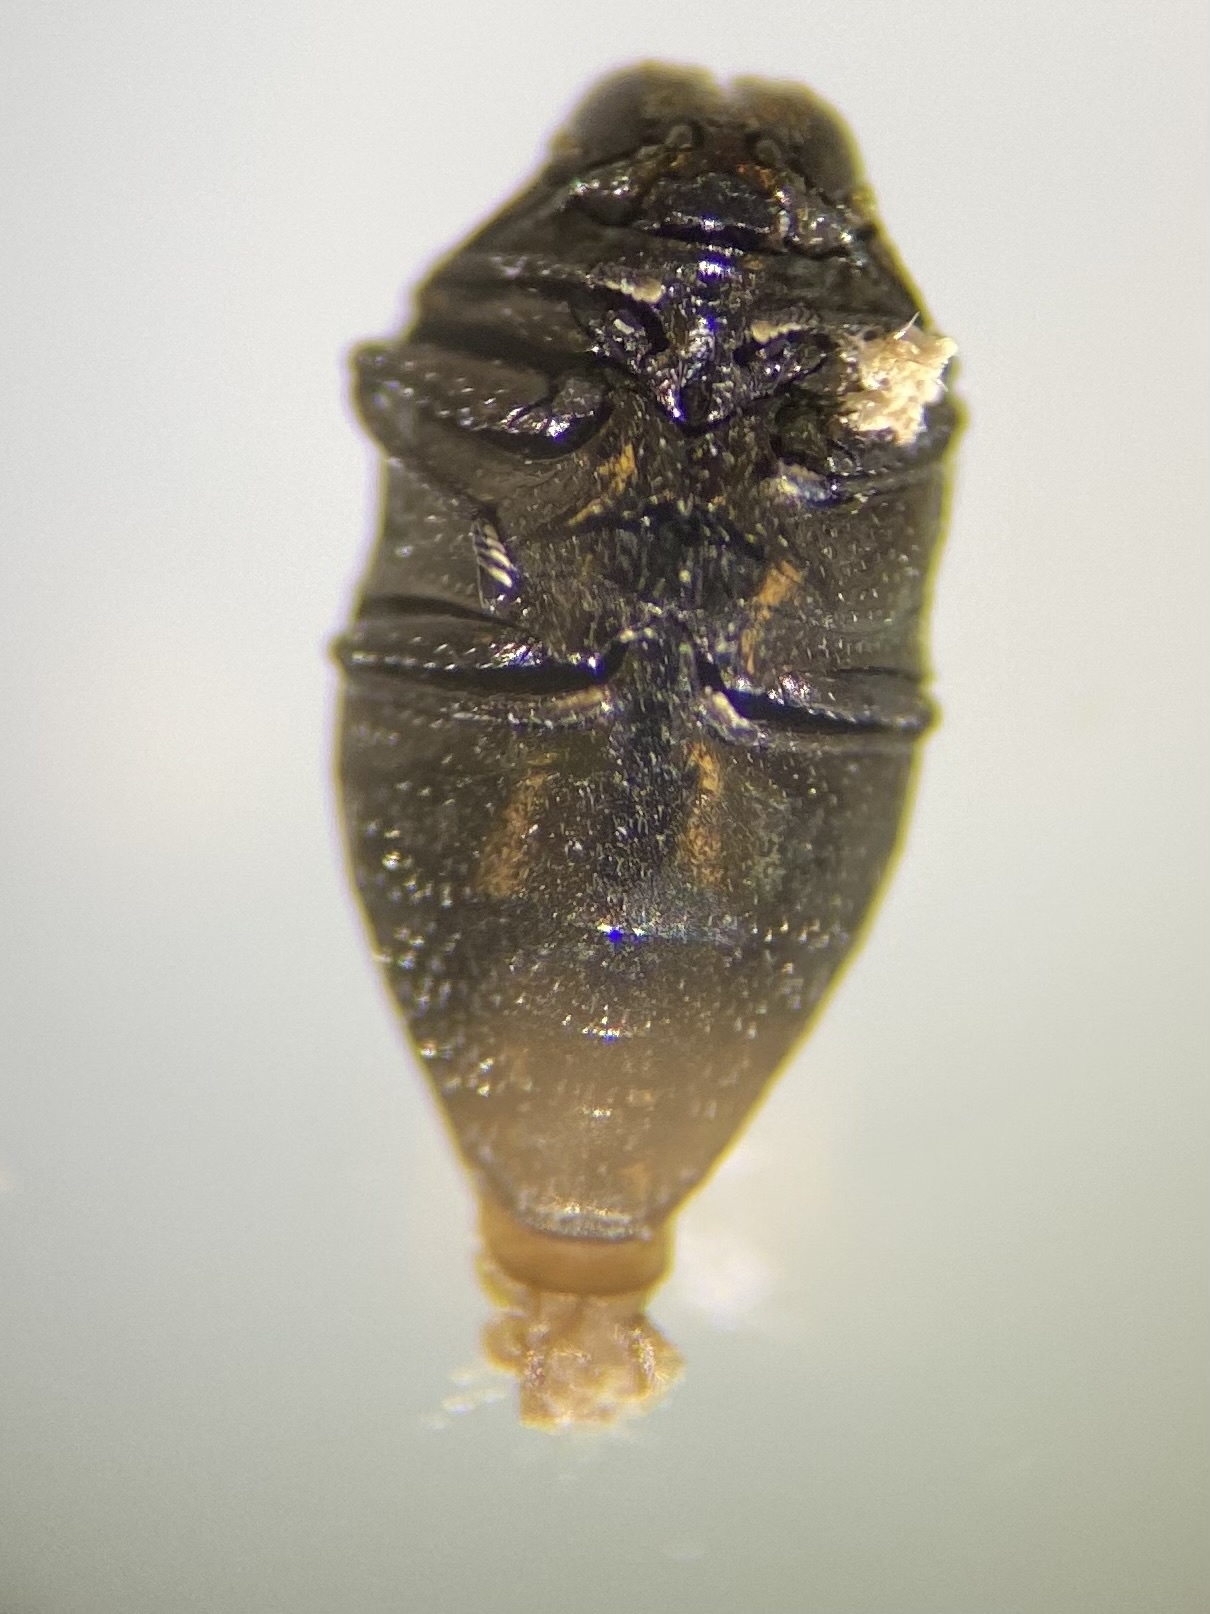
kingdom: Animalia
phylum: Arthropoda
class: Insecta
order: Coleoptera
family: Buprestidae
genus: Brachys
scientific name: Brachys aerosus
